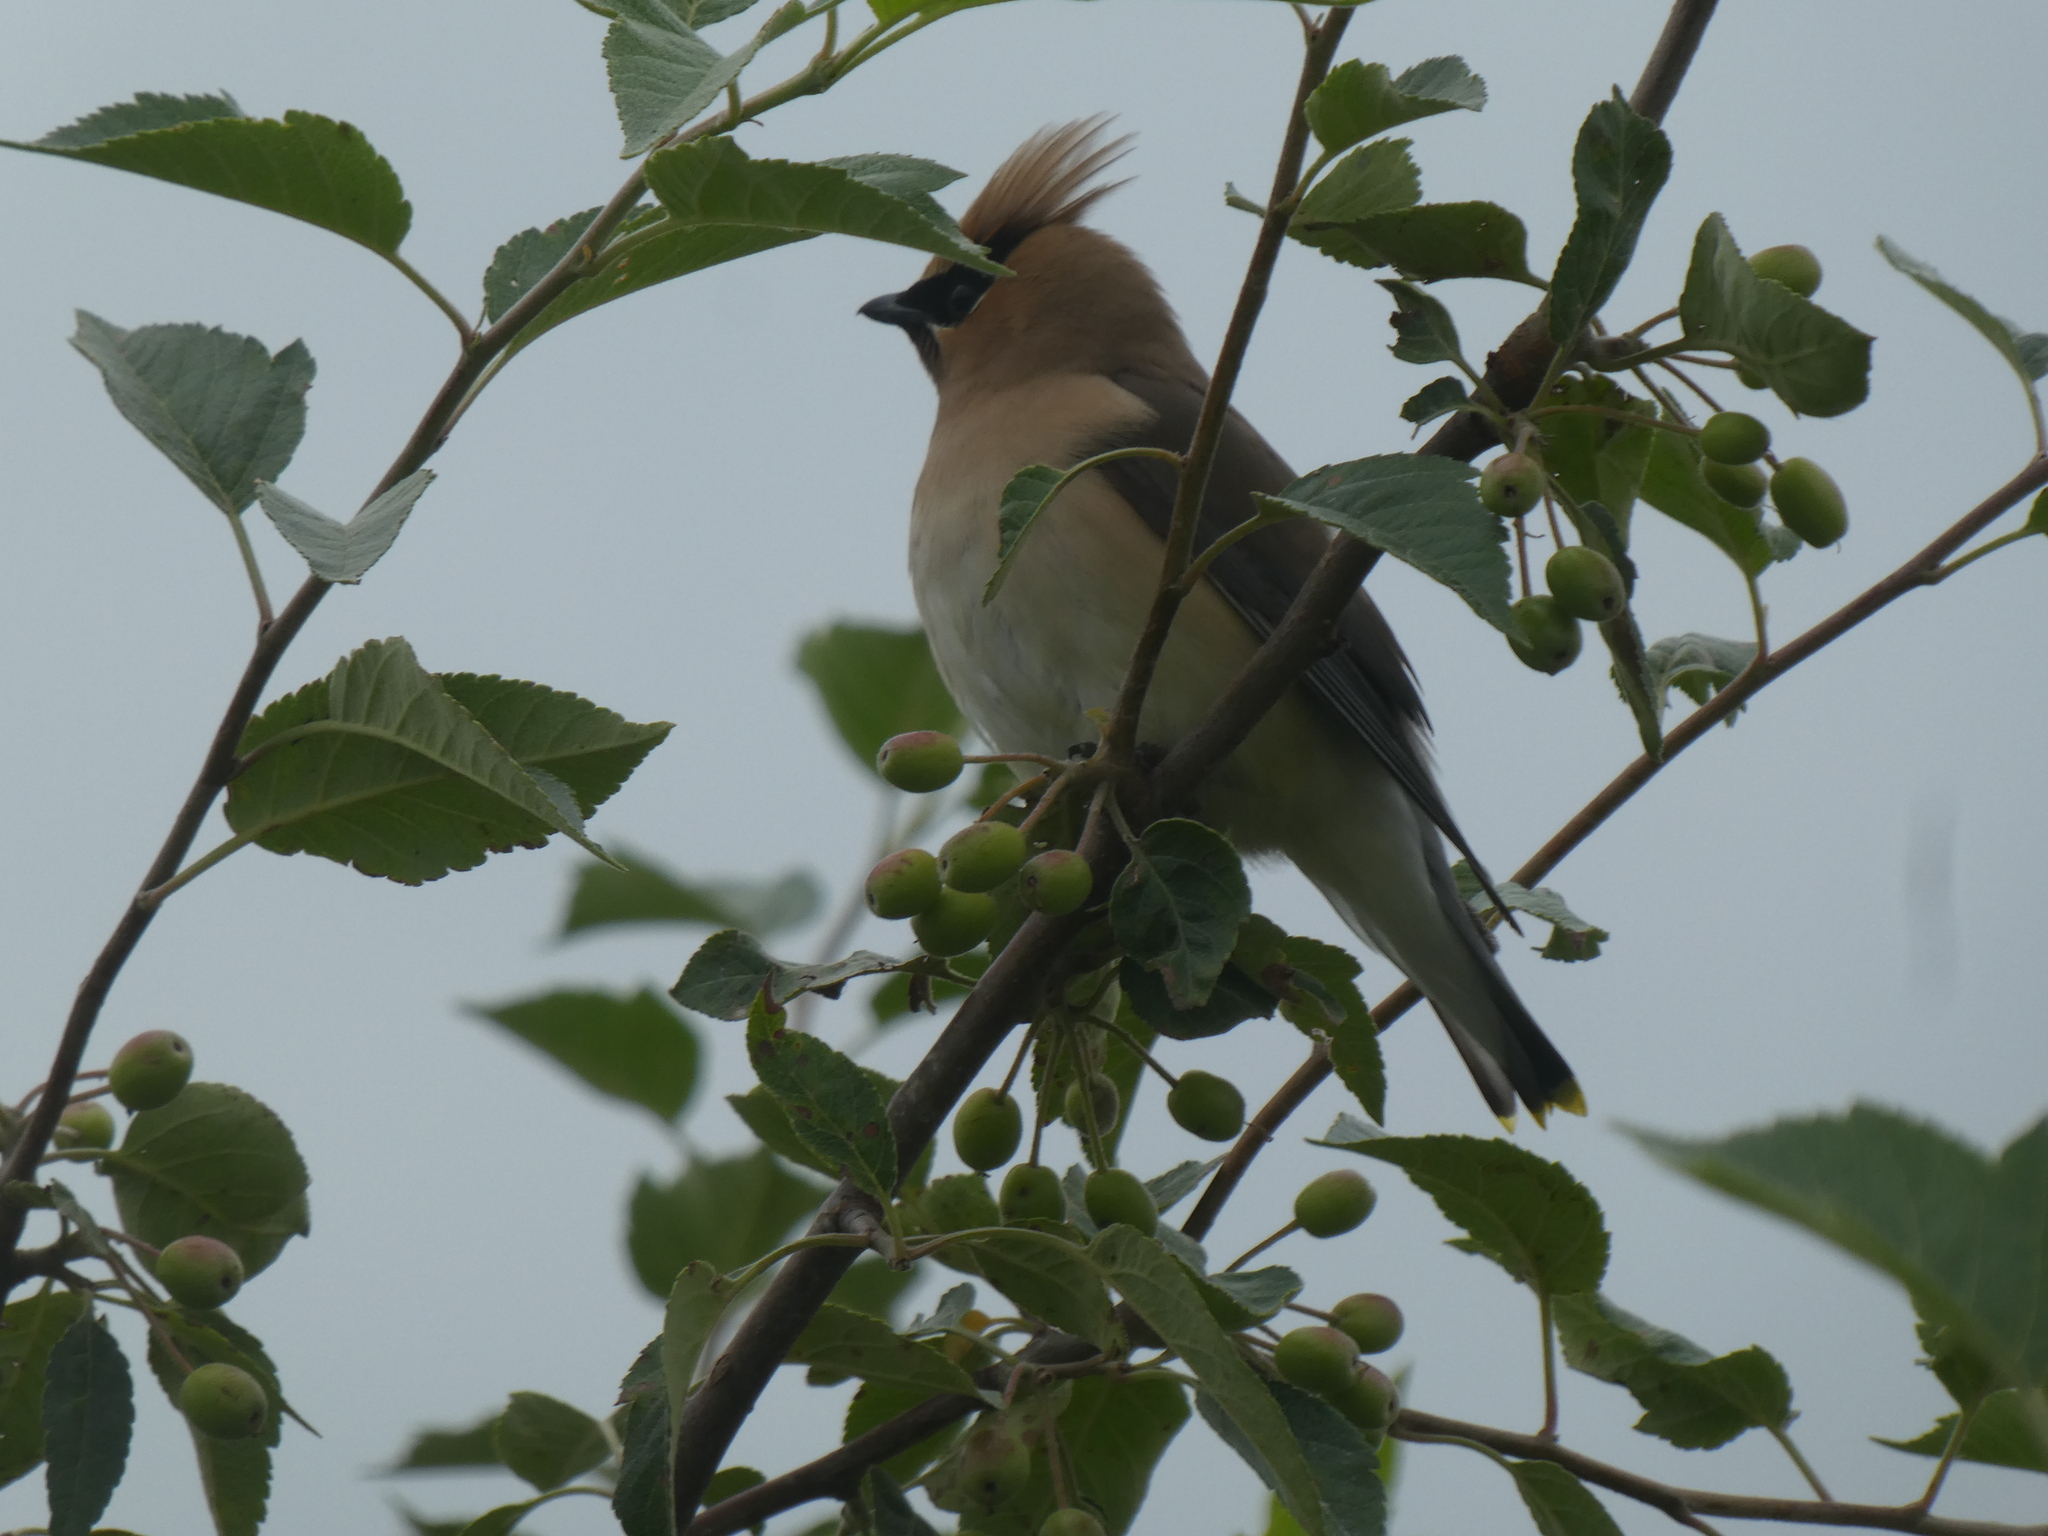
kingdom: Animalia
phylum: Chordata
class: Aves
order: Passeriformes
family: Bombycillidae
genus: Bombycilla
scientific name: Bombycilla cedrorum
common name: Cedar waxwing
